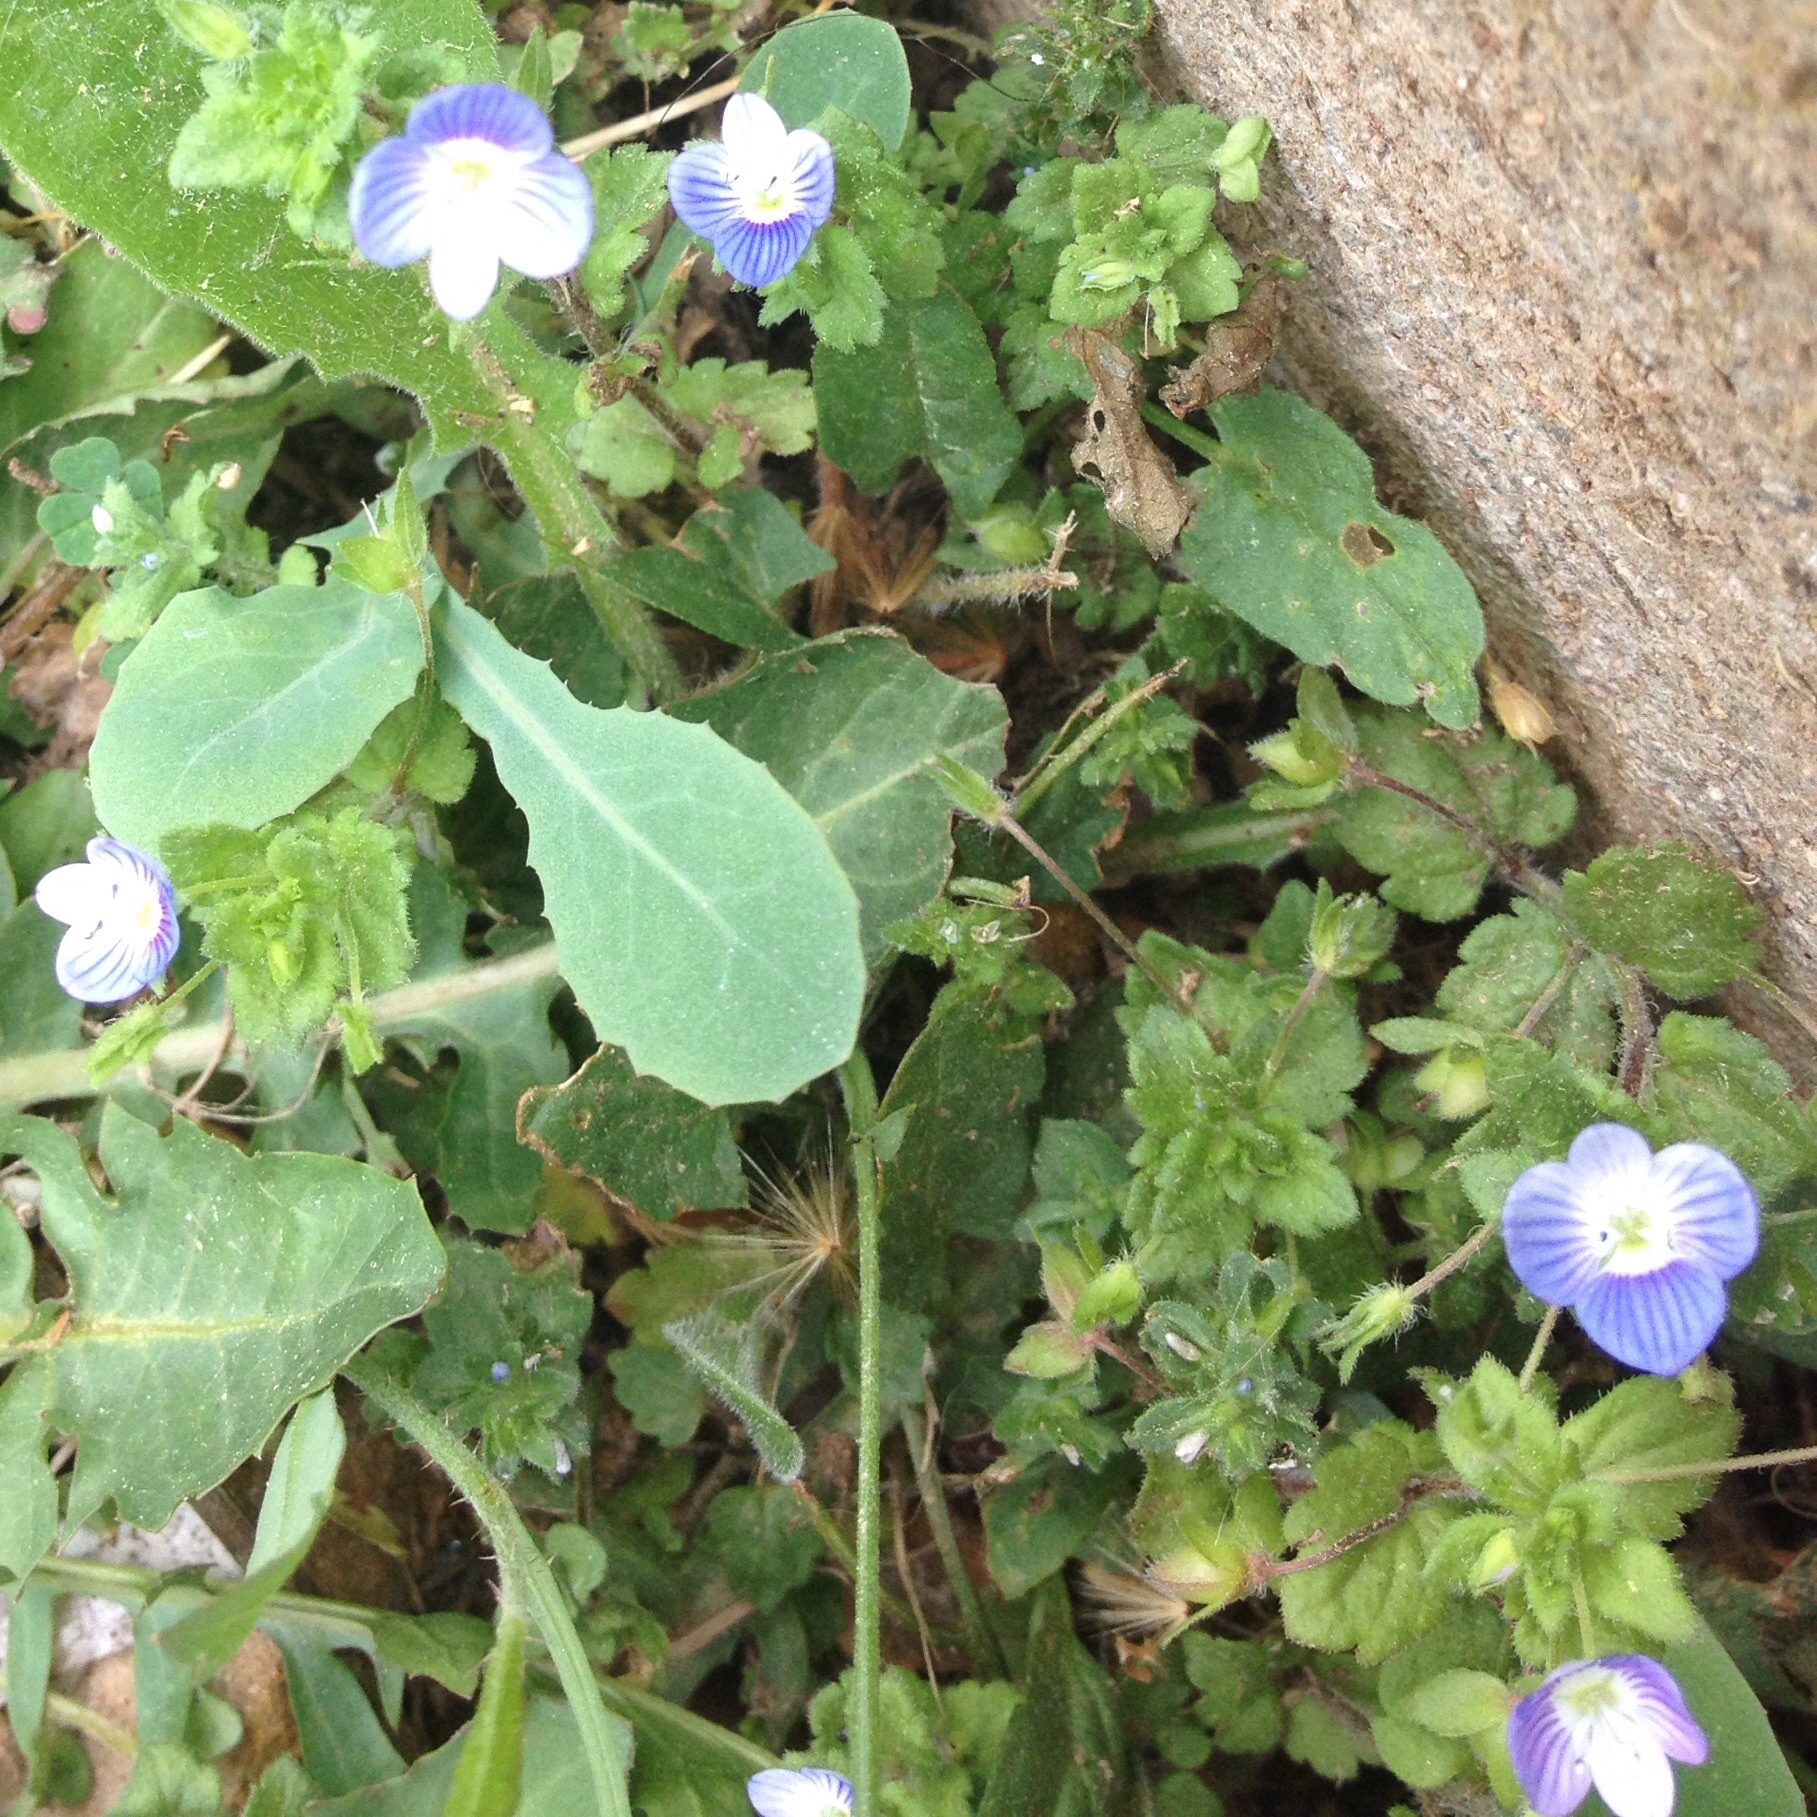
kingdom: Plantae
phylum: Tracheophyta
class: Magnoliopsida
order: Lamiales
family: Plantaginaceae
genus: Veronica
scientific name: Veronica persica
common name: Common field-speedwell
